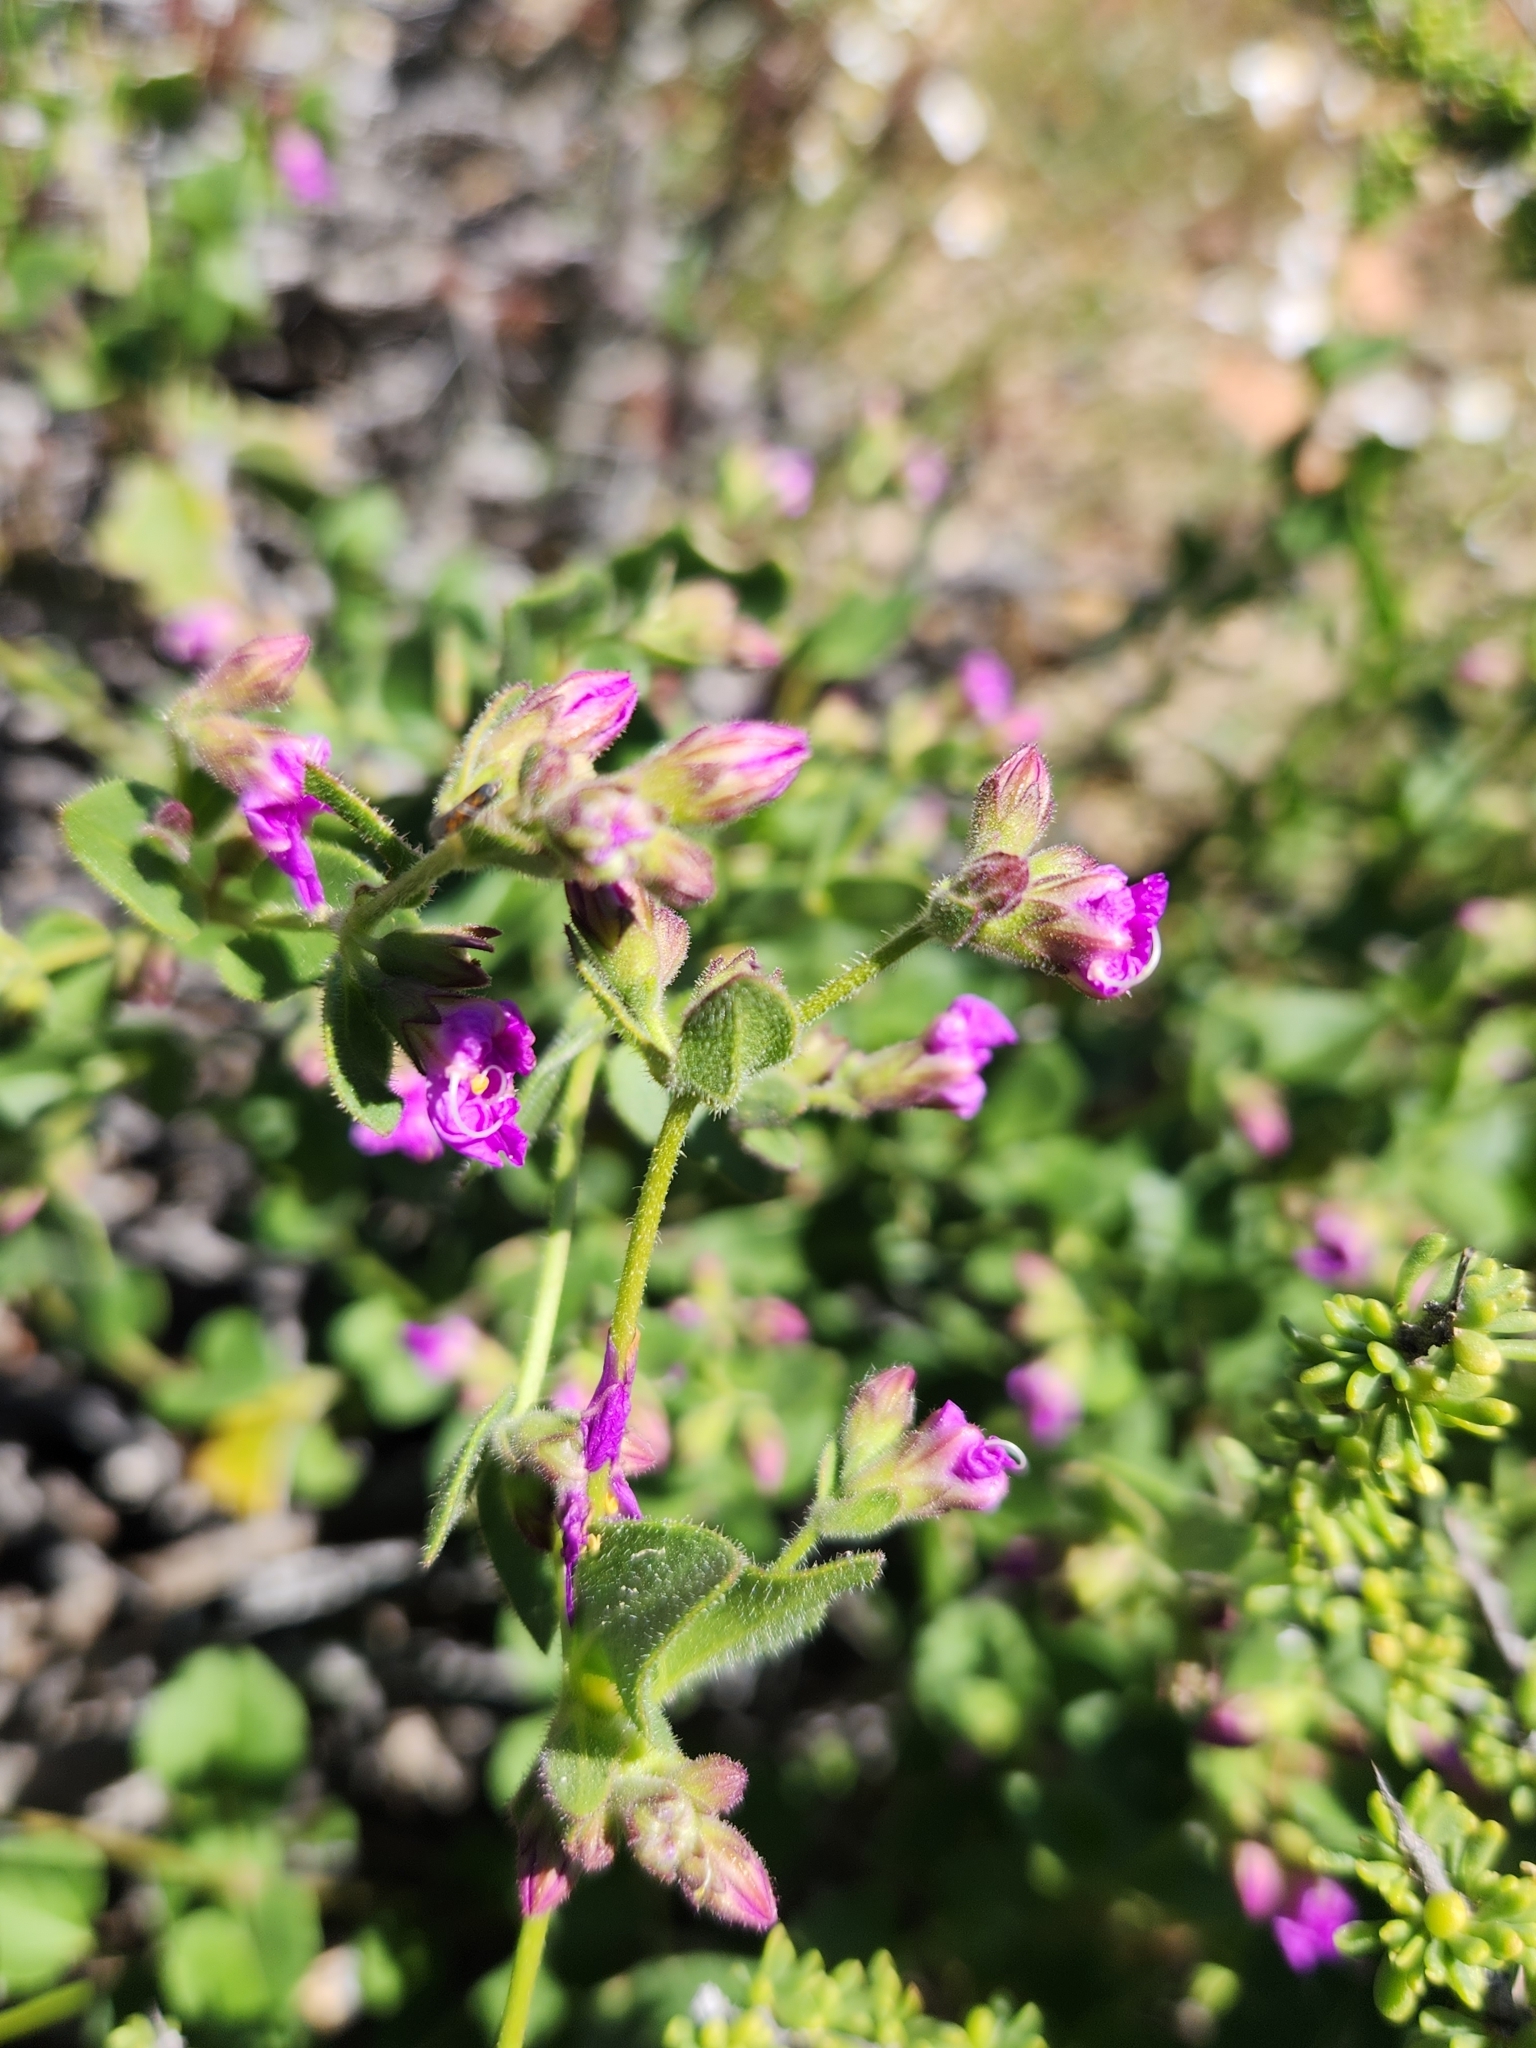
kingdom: Plantae
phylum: Tracheophyta
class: Magnoliopsida
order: Caryophyllales
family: Nyctaginaceae
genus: Mirabilis
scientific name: Mirabilis laevis
